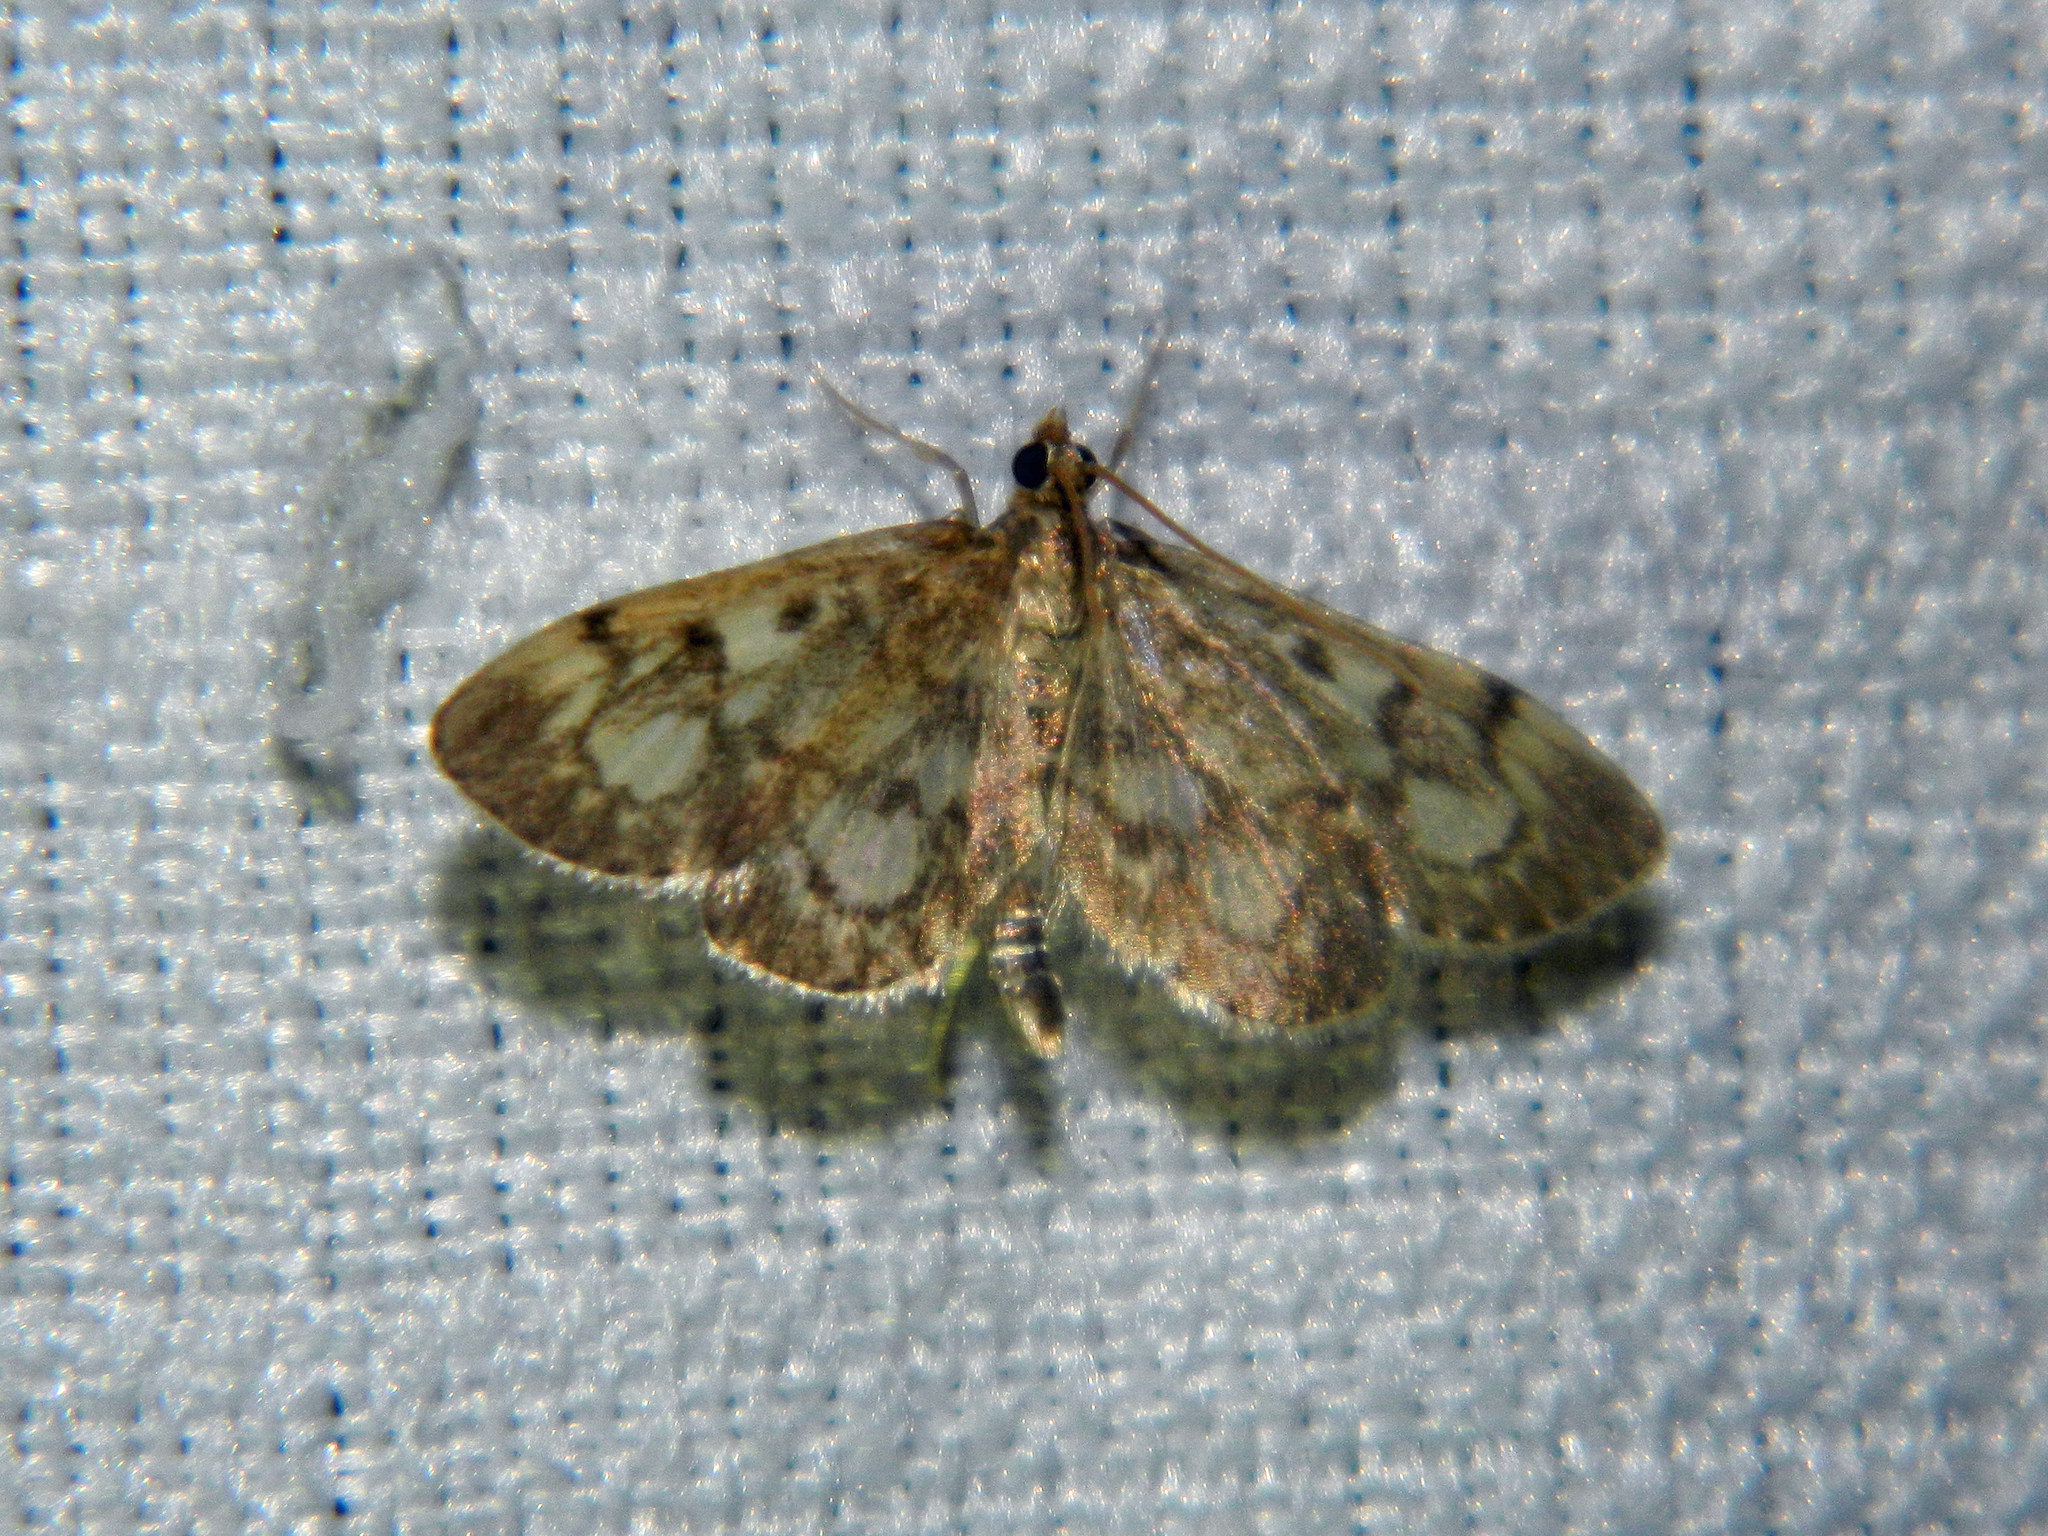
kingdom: Animalia
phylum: Arthropoda
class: Insecta
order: Lepidoptera
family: Crambidae
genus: Anania
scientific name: Anania
